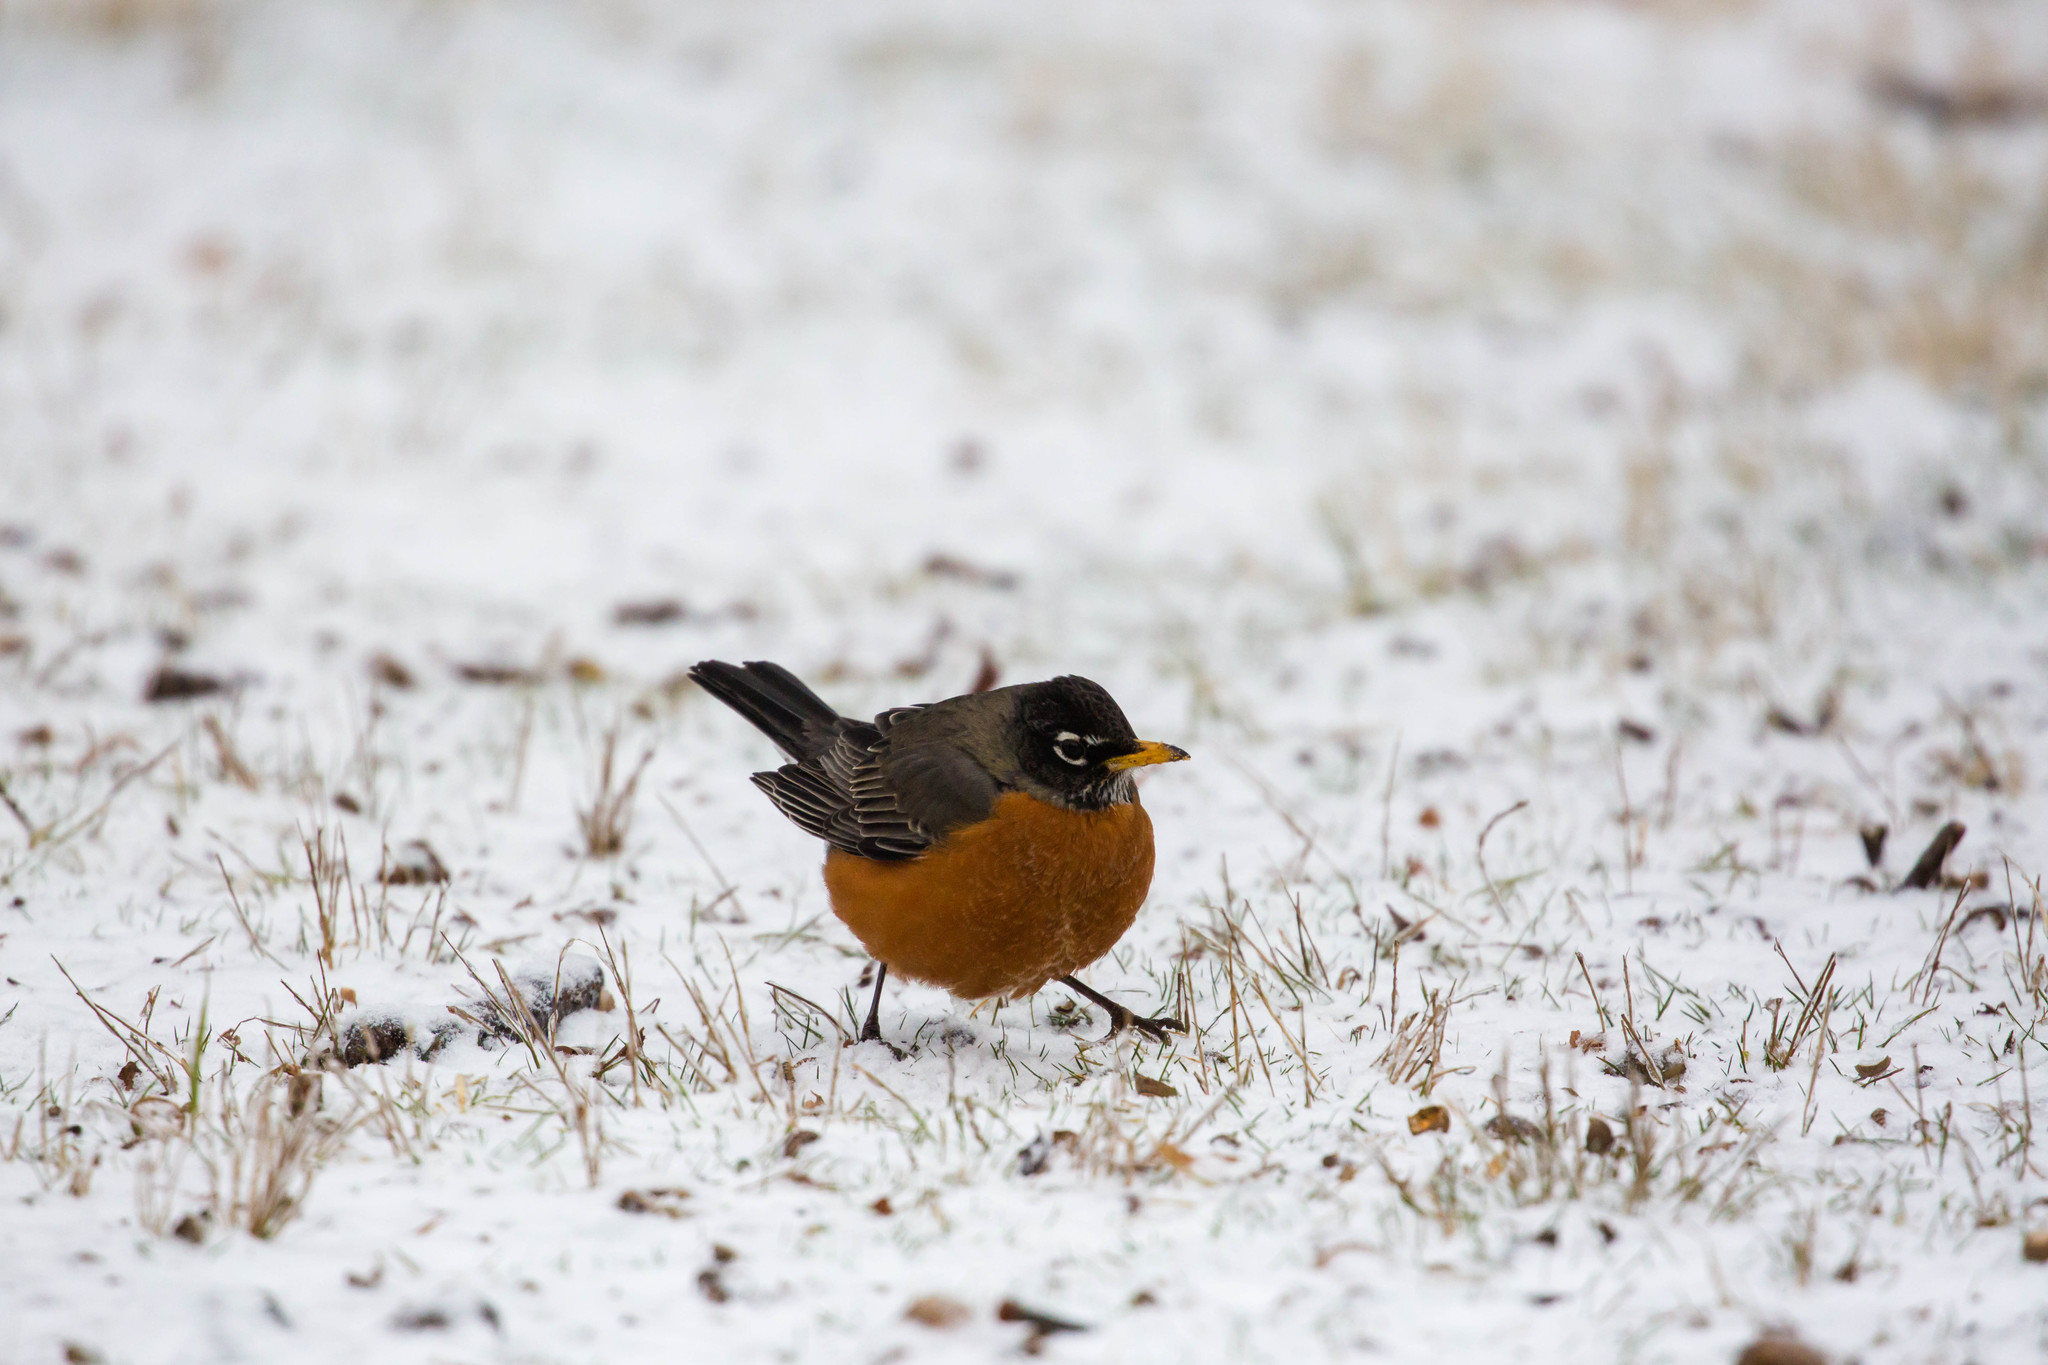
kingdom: Animalia
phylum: Chordata
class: Aves
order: Passeriformes
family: Turdidae
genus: Turdus
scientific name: Turdus migratorius
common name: American robin
